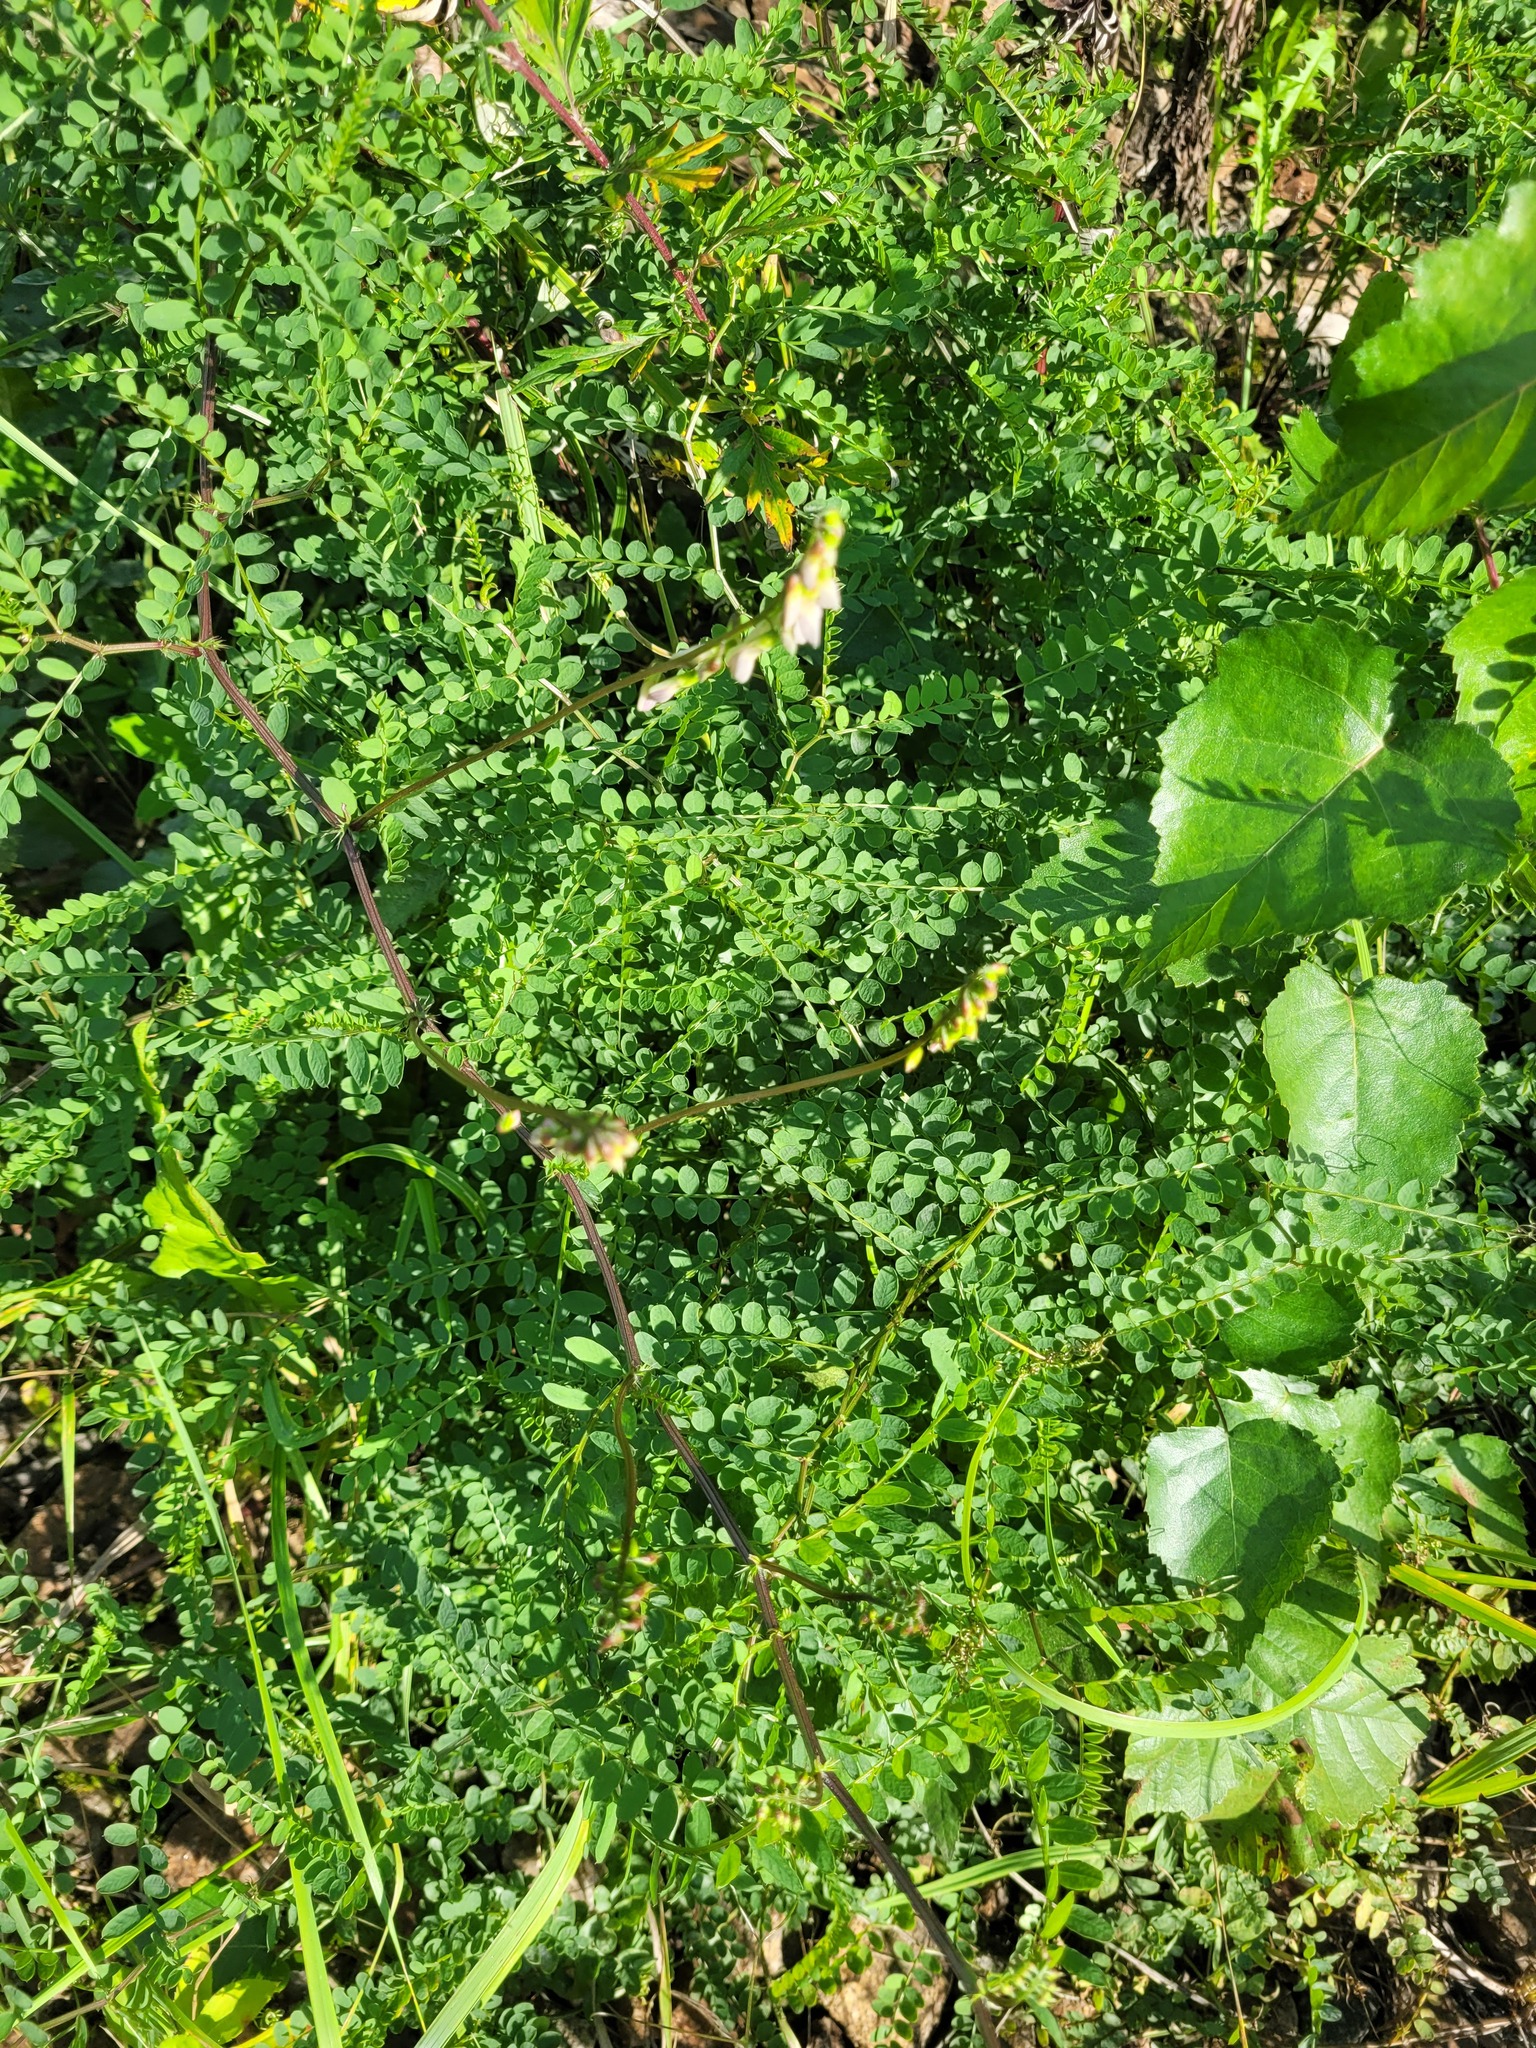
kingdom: Plantae
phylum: Tracheophyta
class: Magnoliopsida
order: Fabales
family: Fabaceae
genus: Vicia
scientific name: Vicia sylvatica
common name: Wood vetch
